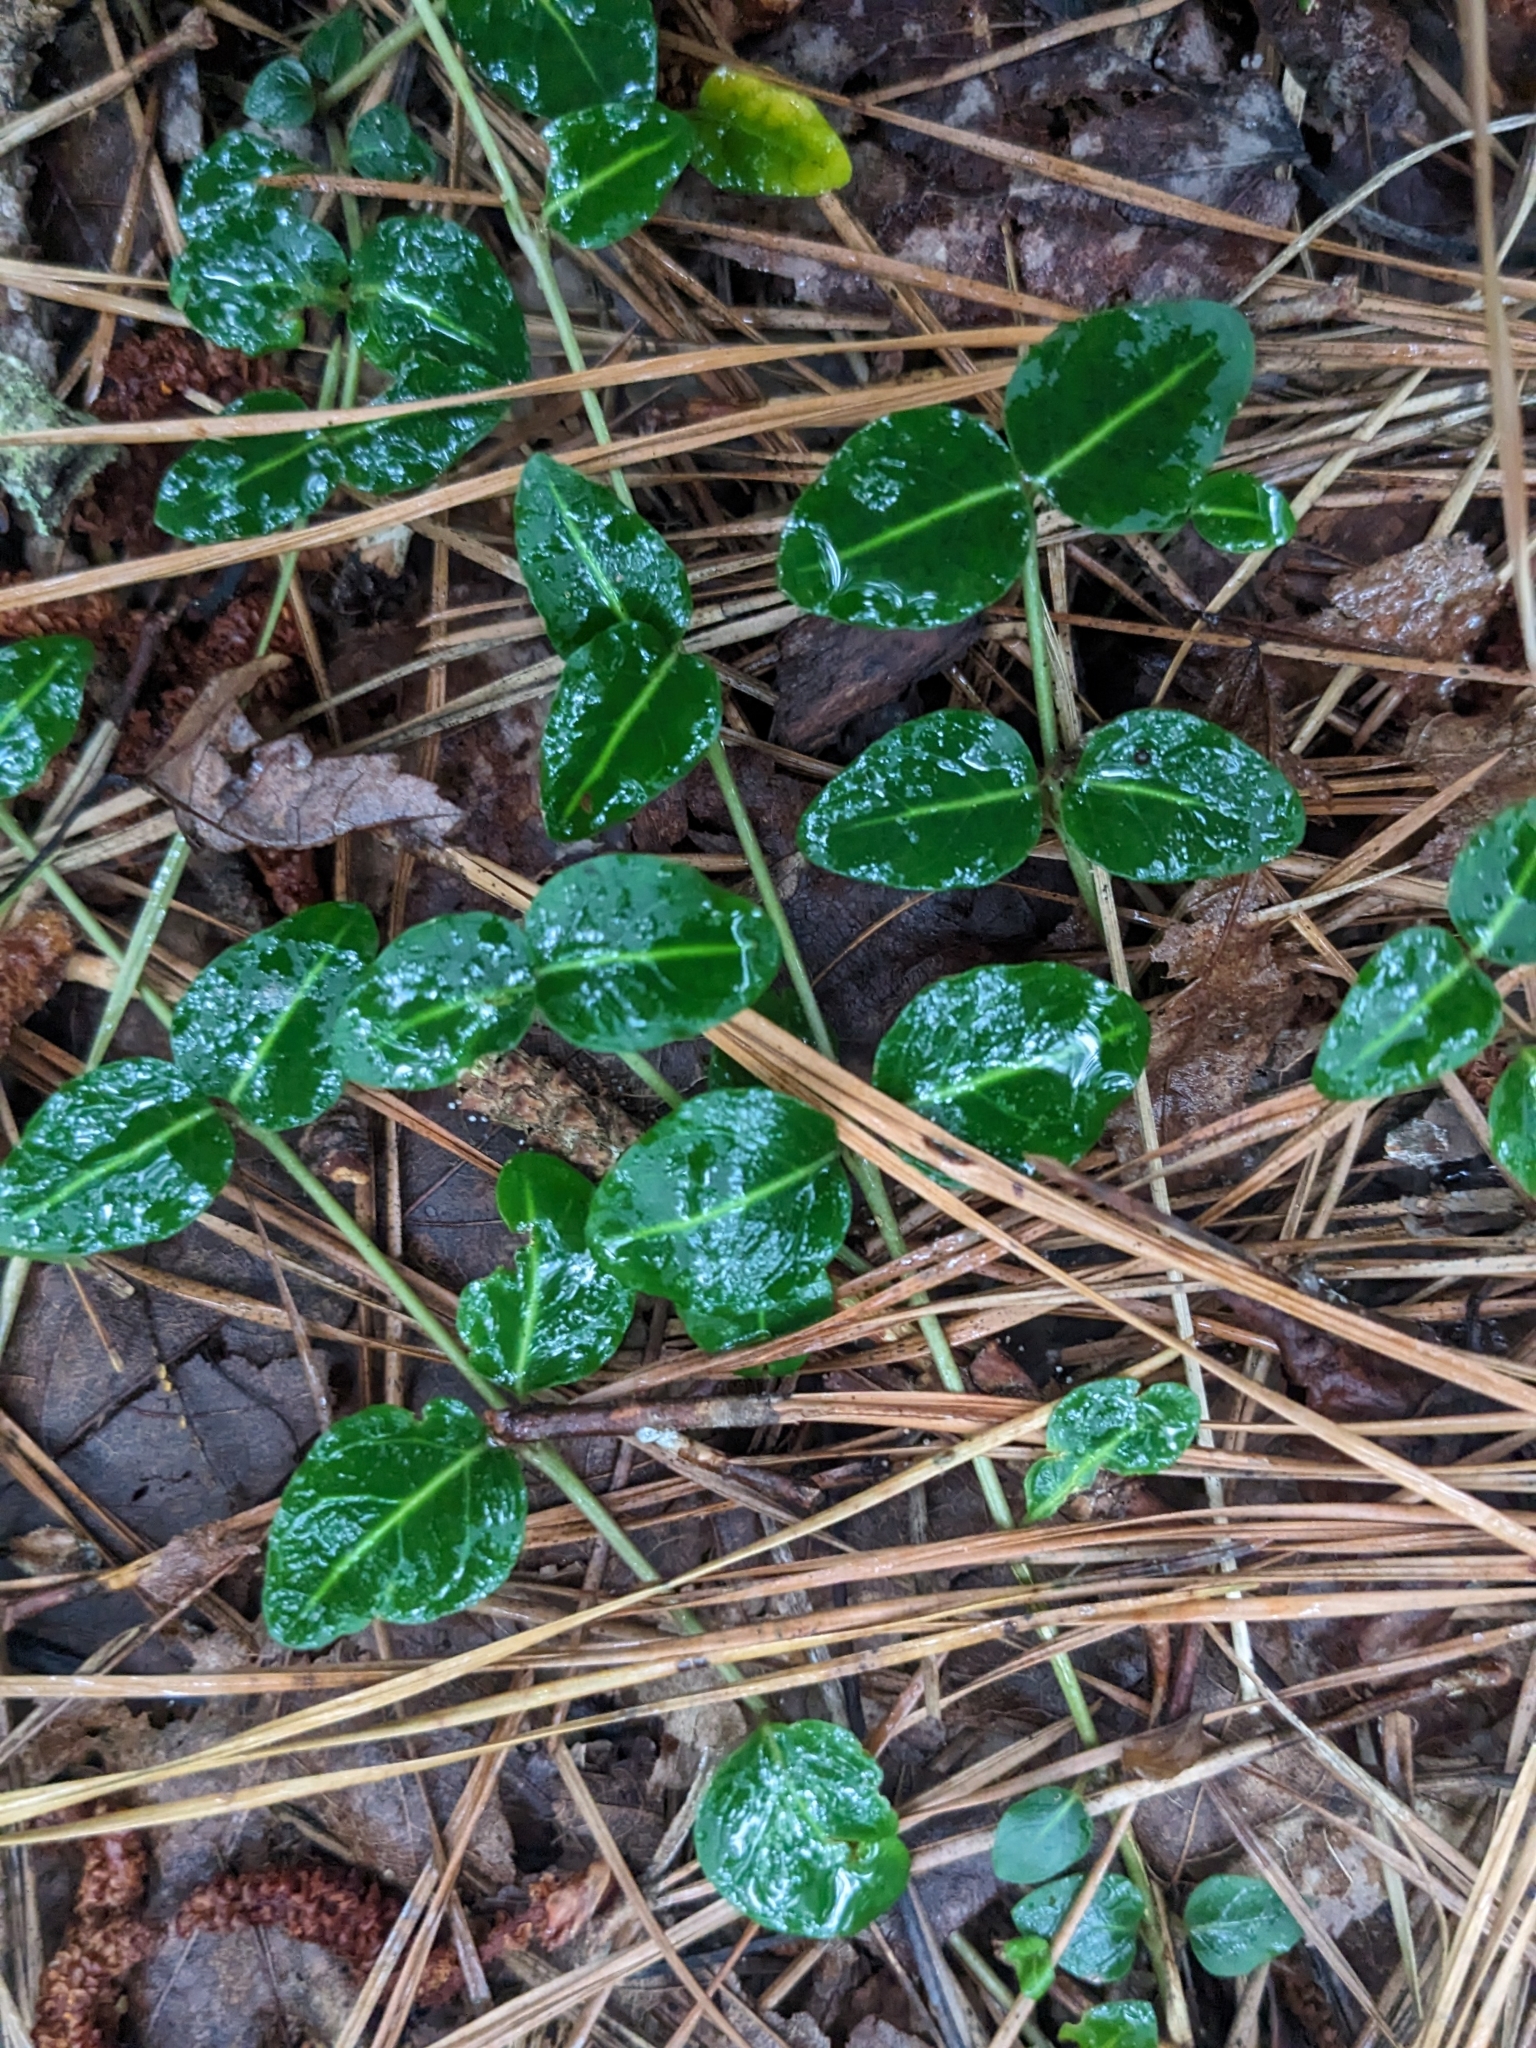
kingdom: Plantae
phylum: Tracheophyta
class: Magnoliopsida
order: Gentianales
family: Rubiaceae
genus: Mitchella
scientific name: Mitchella repens
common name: Partridge-berry
